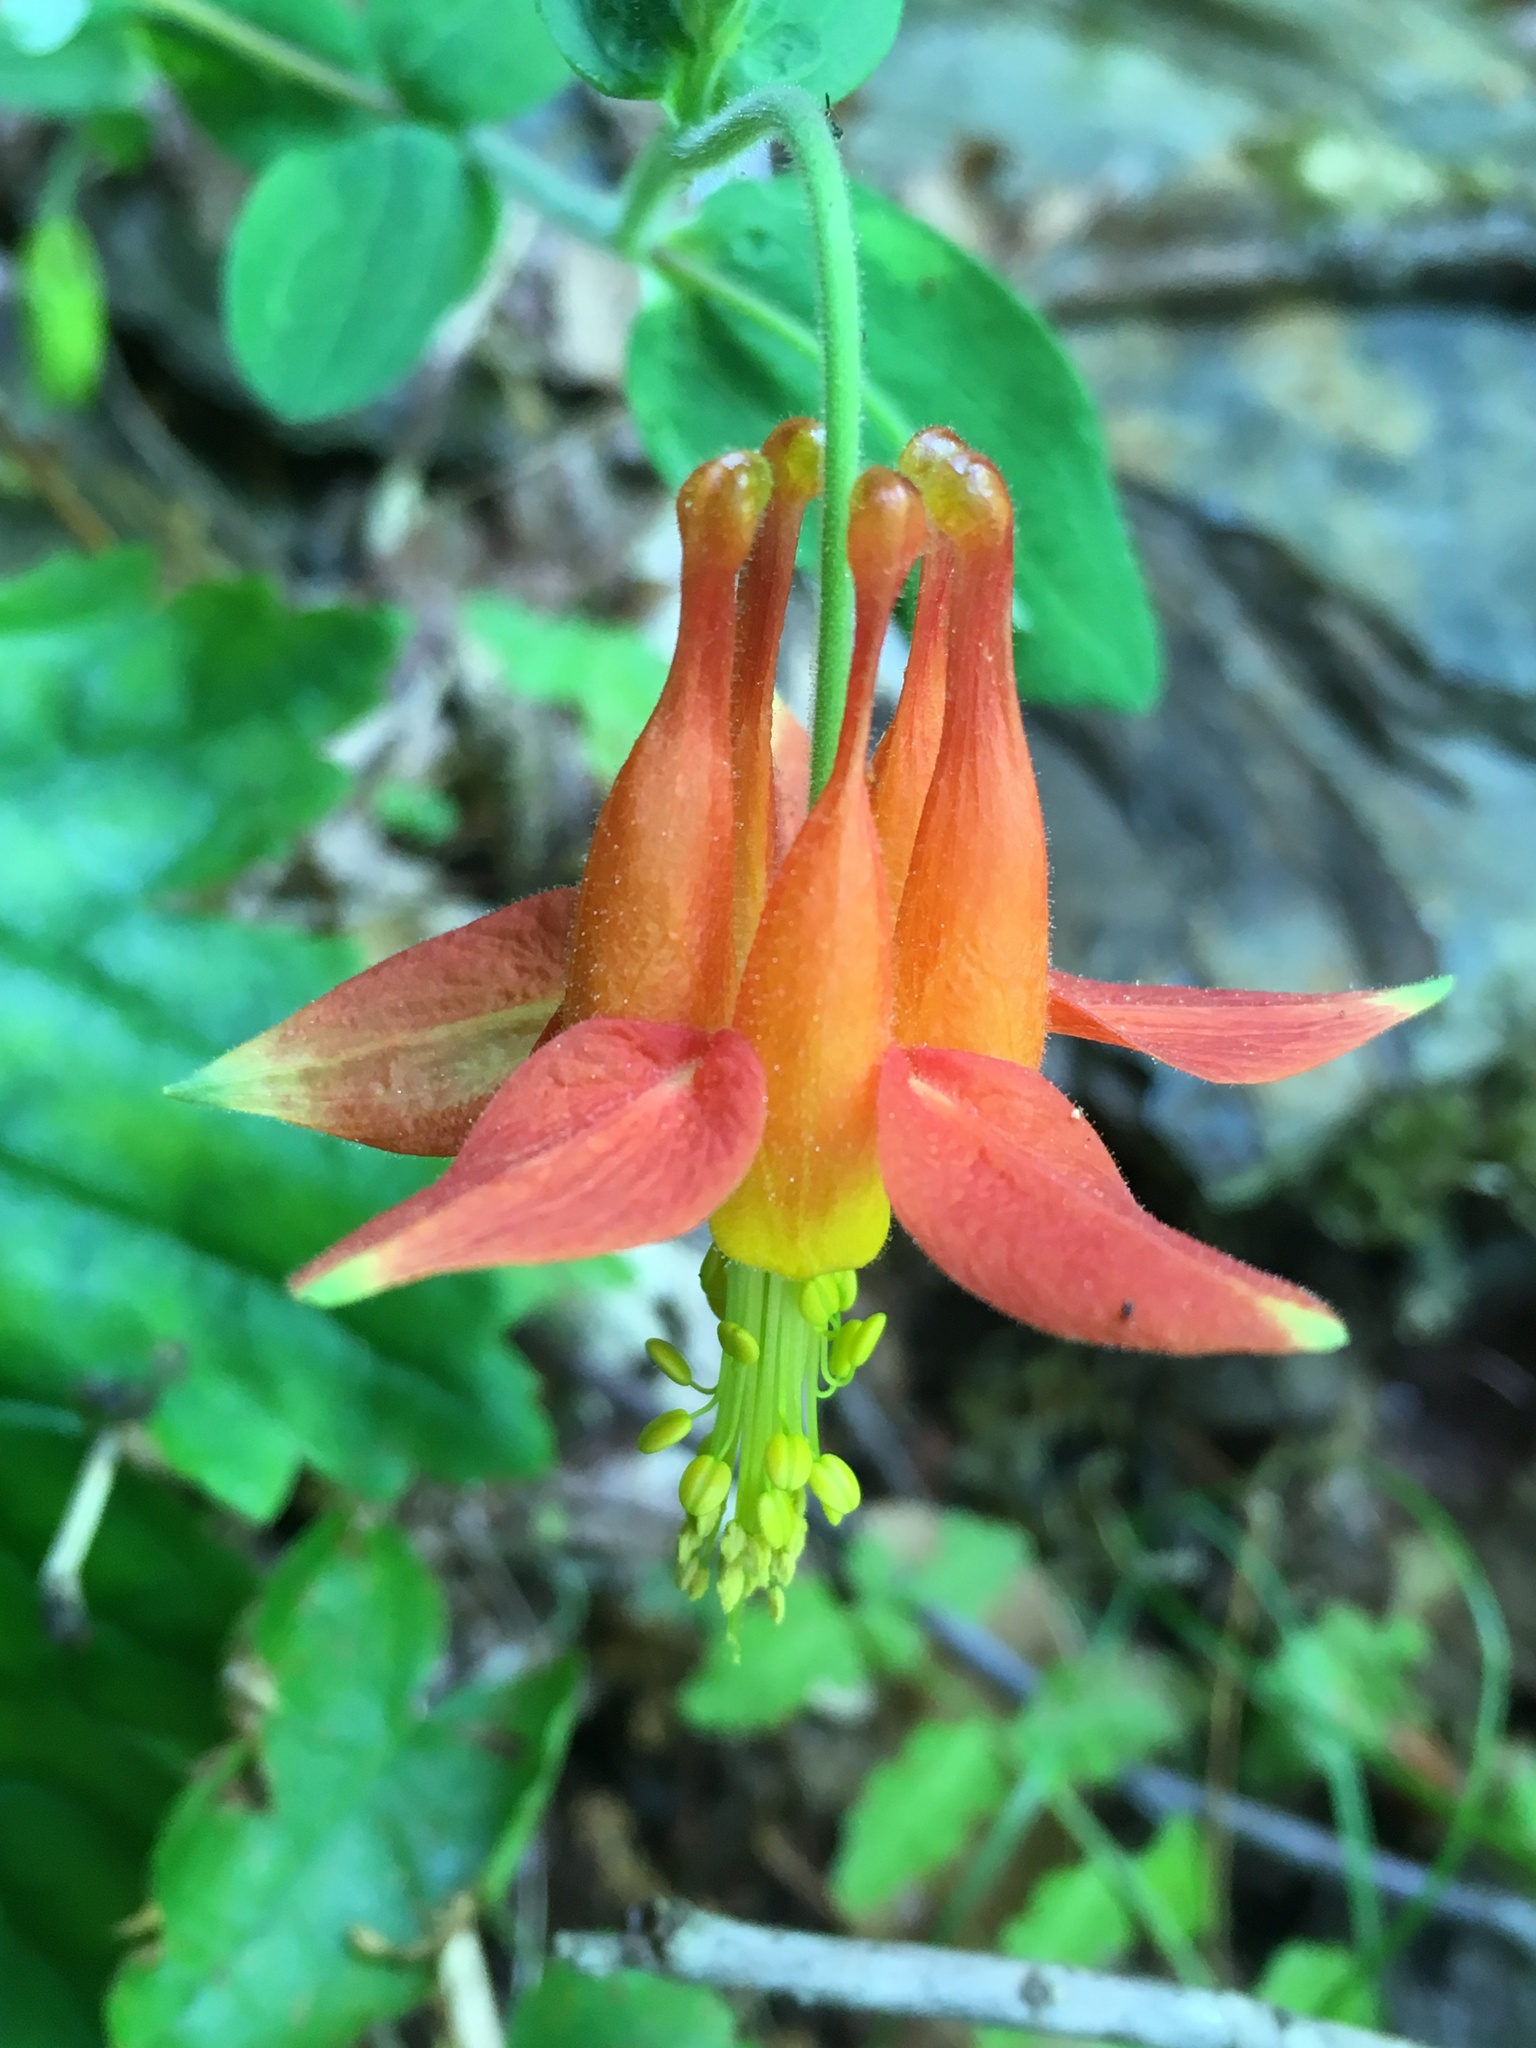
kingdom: Plantae
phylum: Tracheophyta
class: Magnoliopsida
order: Ranunculales
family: Ranunculaceae
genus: Aquilegia
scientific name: Aquilegia formosa
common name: Sitka columbine
